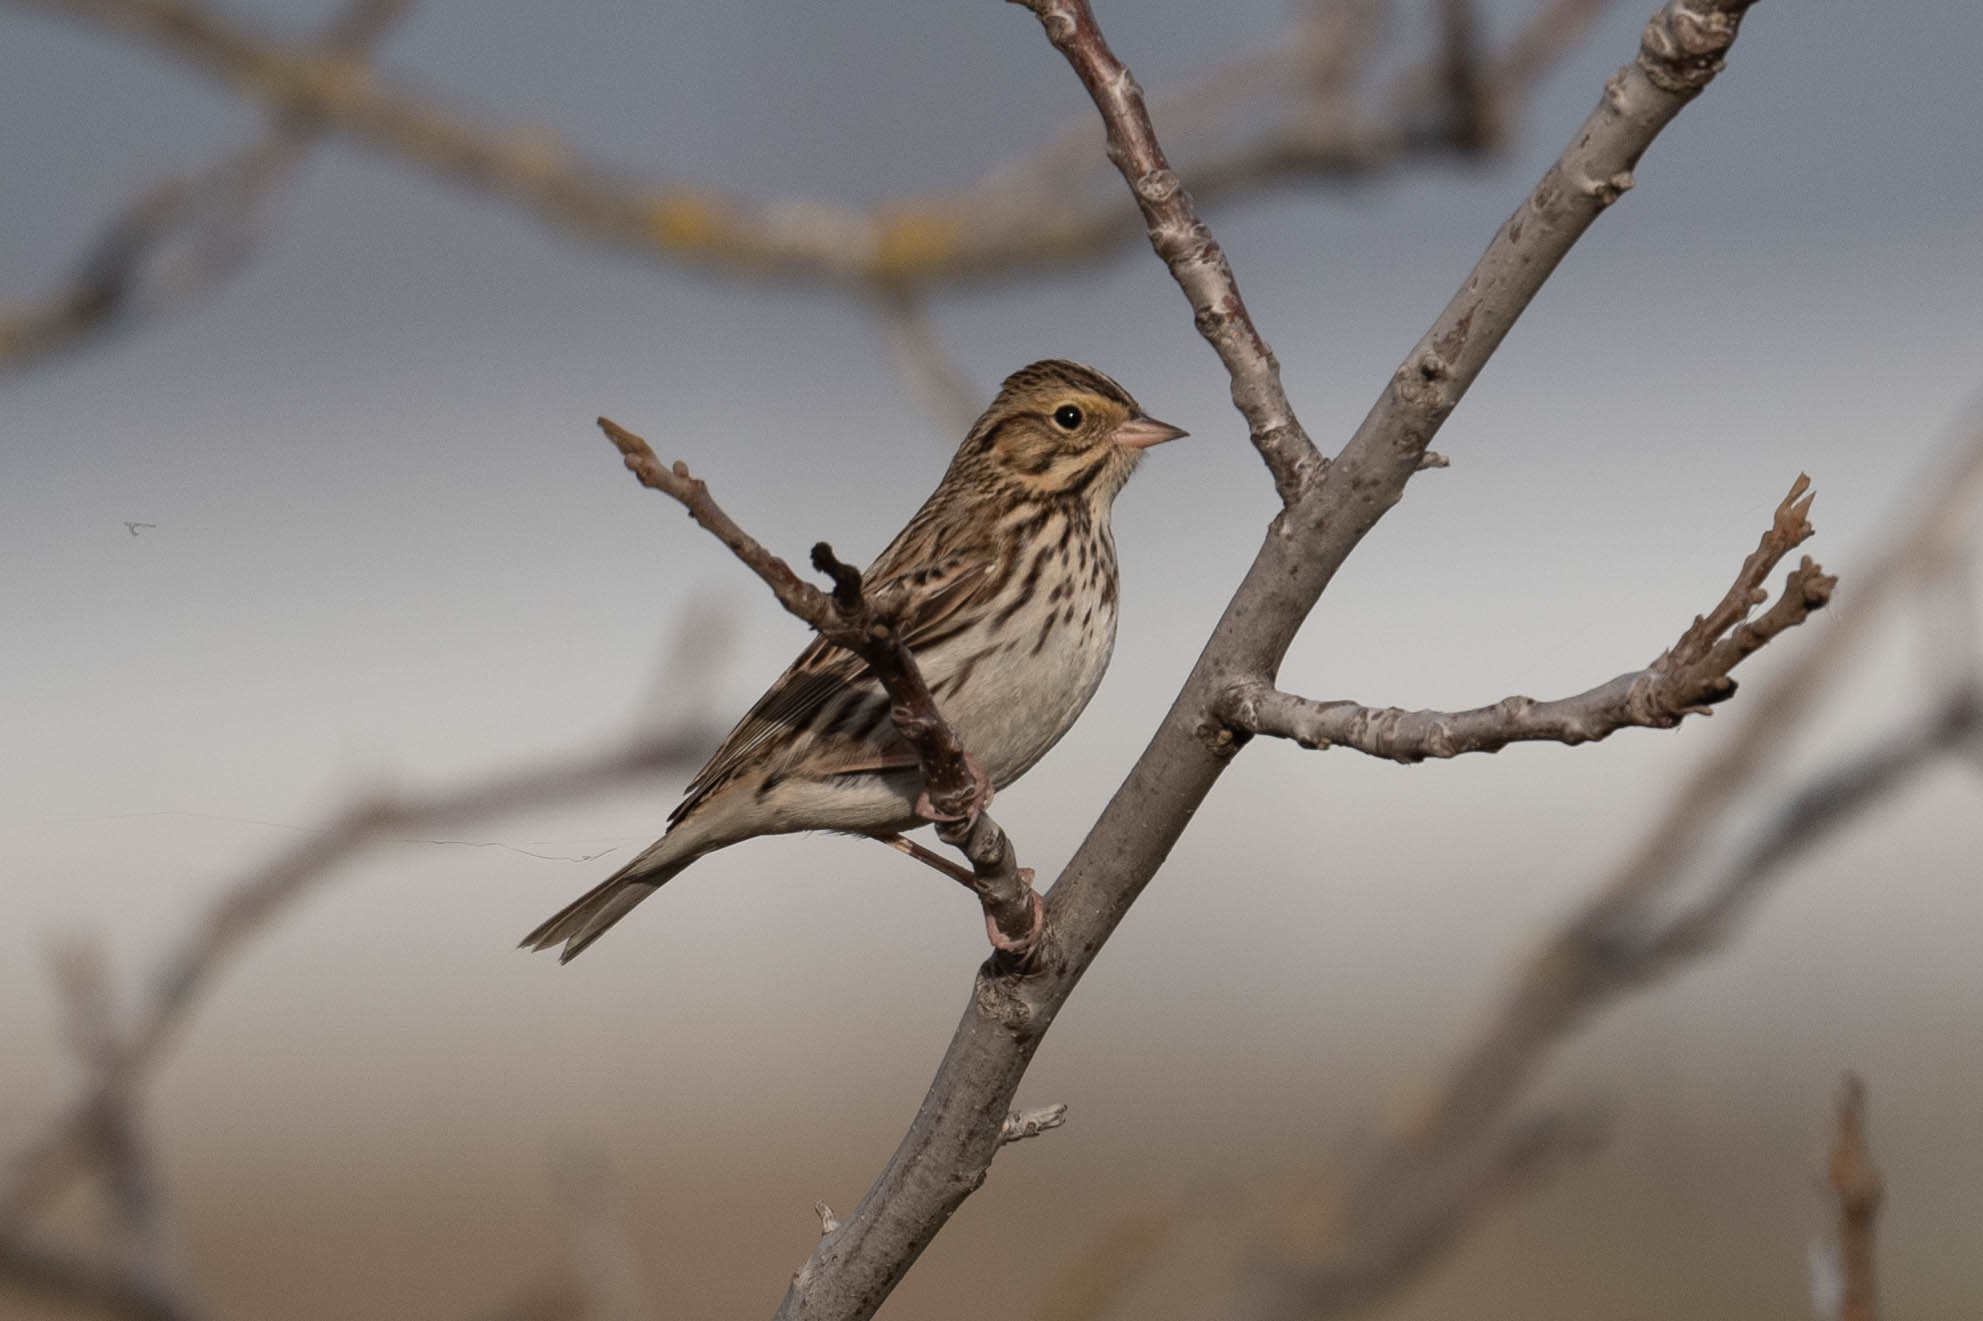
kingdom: Animalia
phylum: Chordata
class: Aves
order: Passeriformes
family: Passerellidae
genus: Passerculus
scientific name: Passerculus sandwichensis
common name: Savannah sparrow
